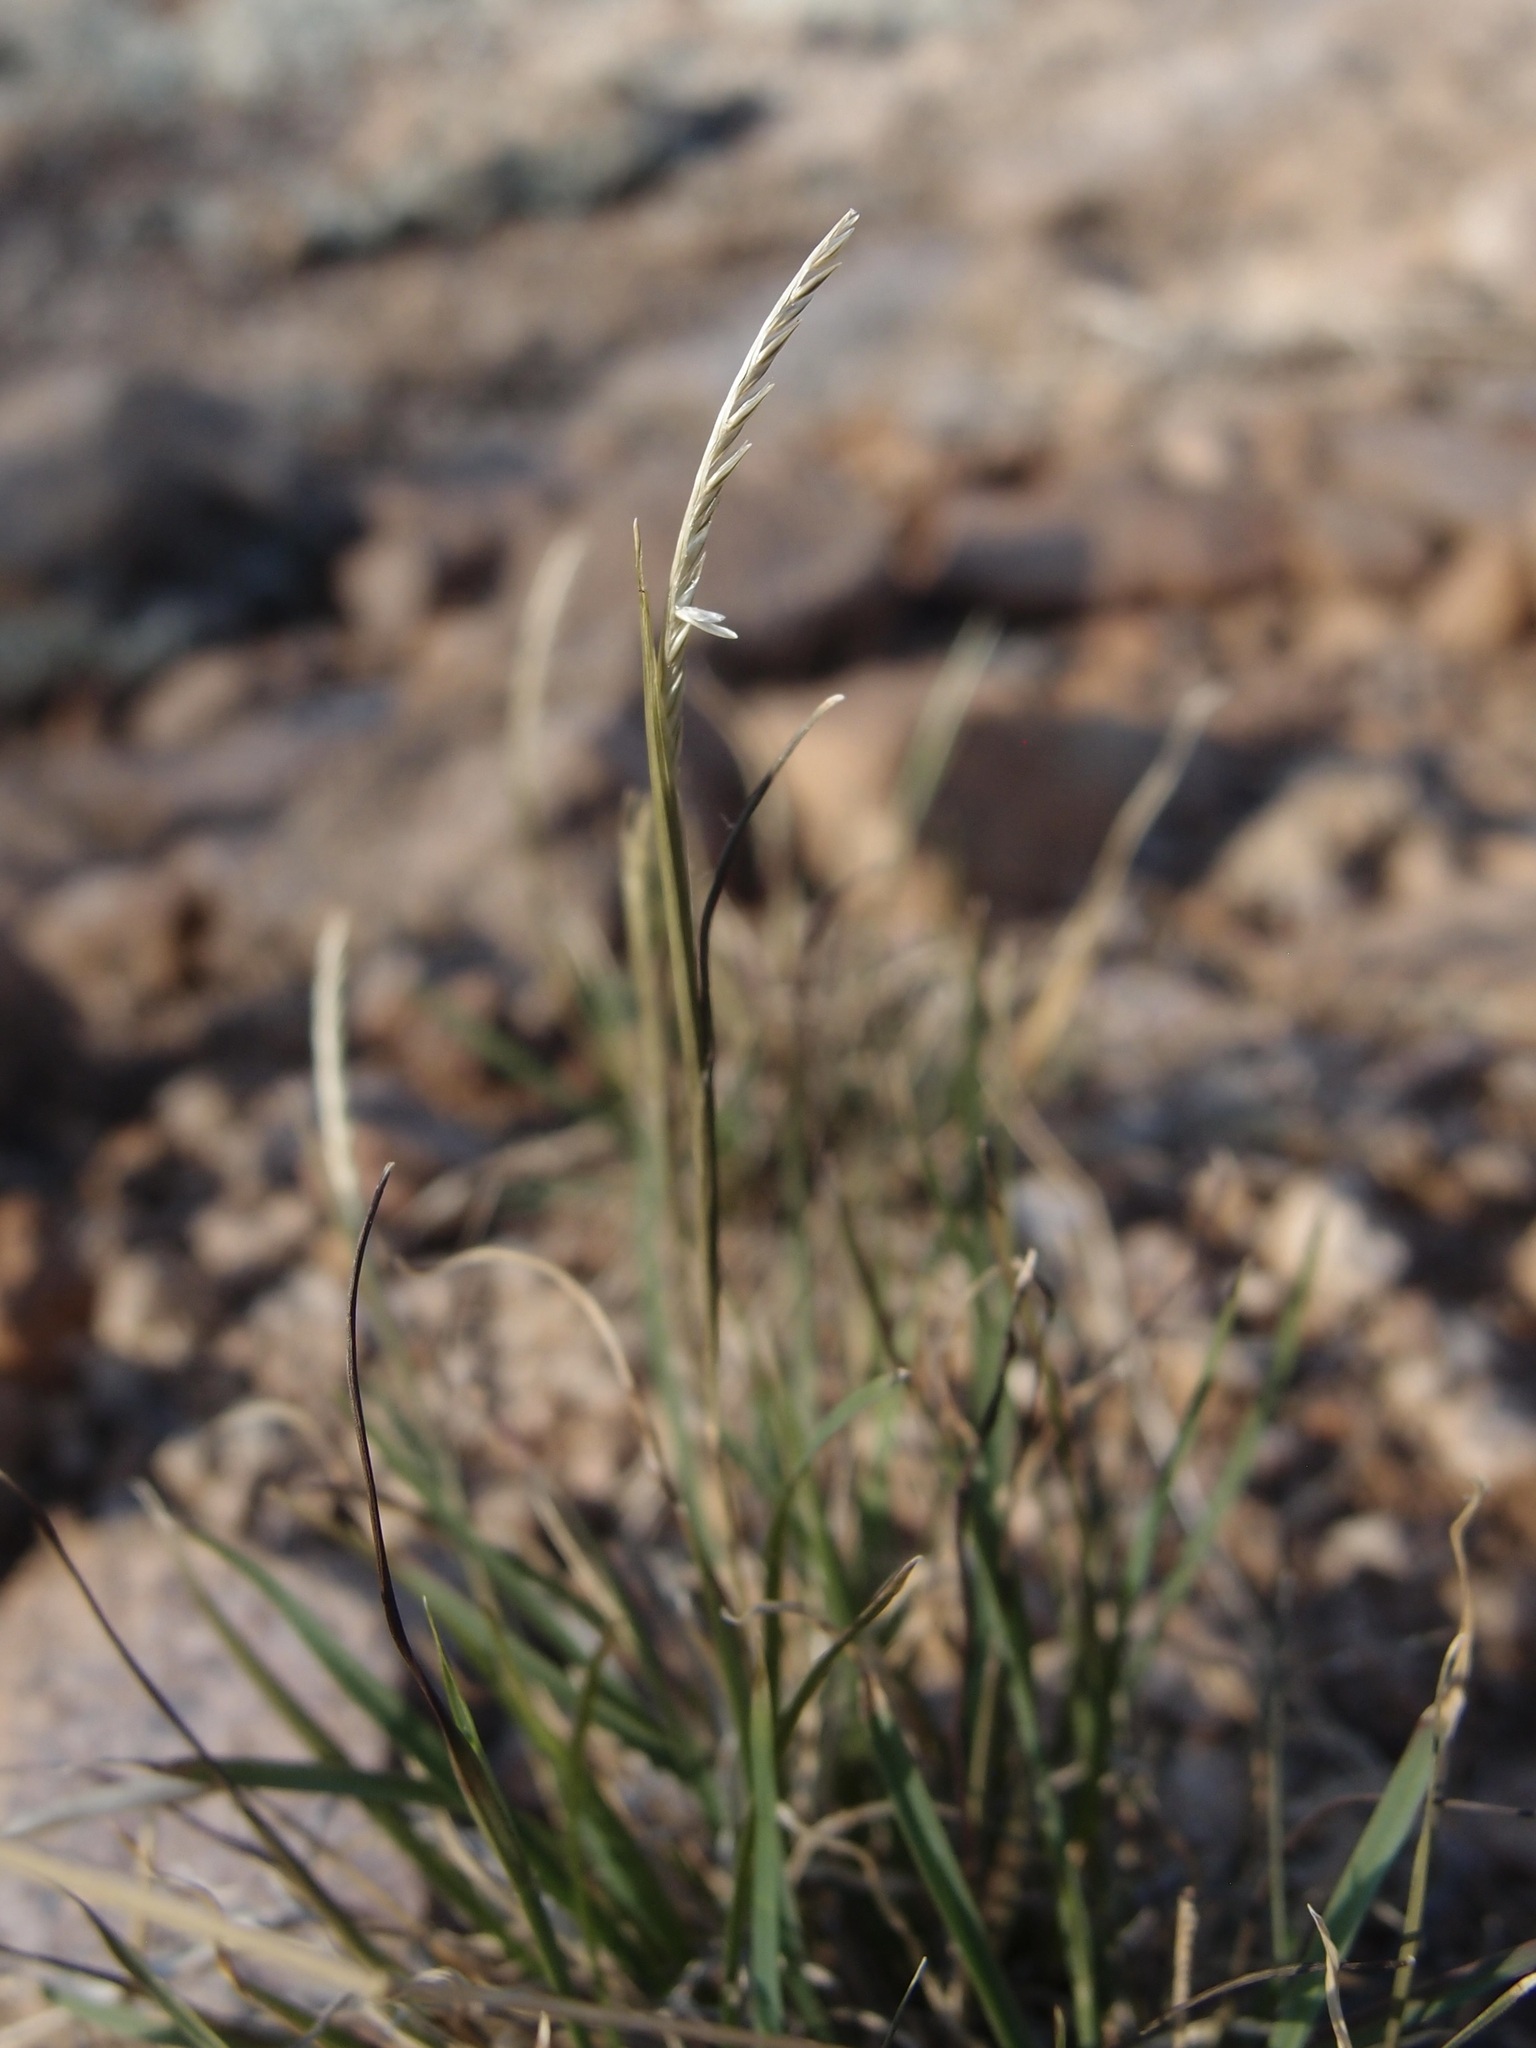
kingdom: Plantae
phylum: Tracheophyta
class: Liliopsida
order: Poales
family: Poaceae
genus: Microchloa
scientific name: Microchloa kunthii
